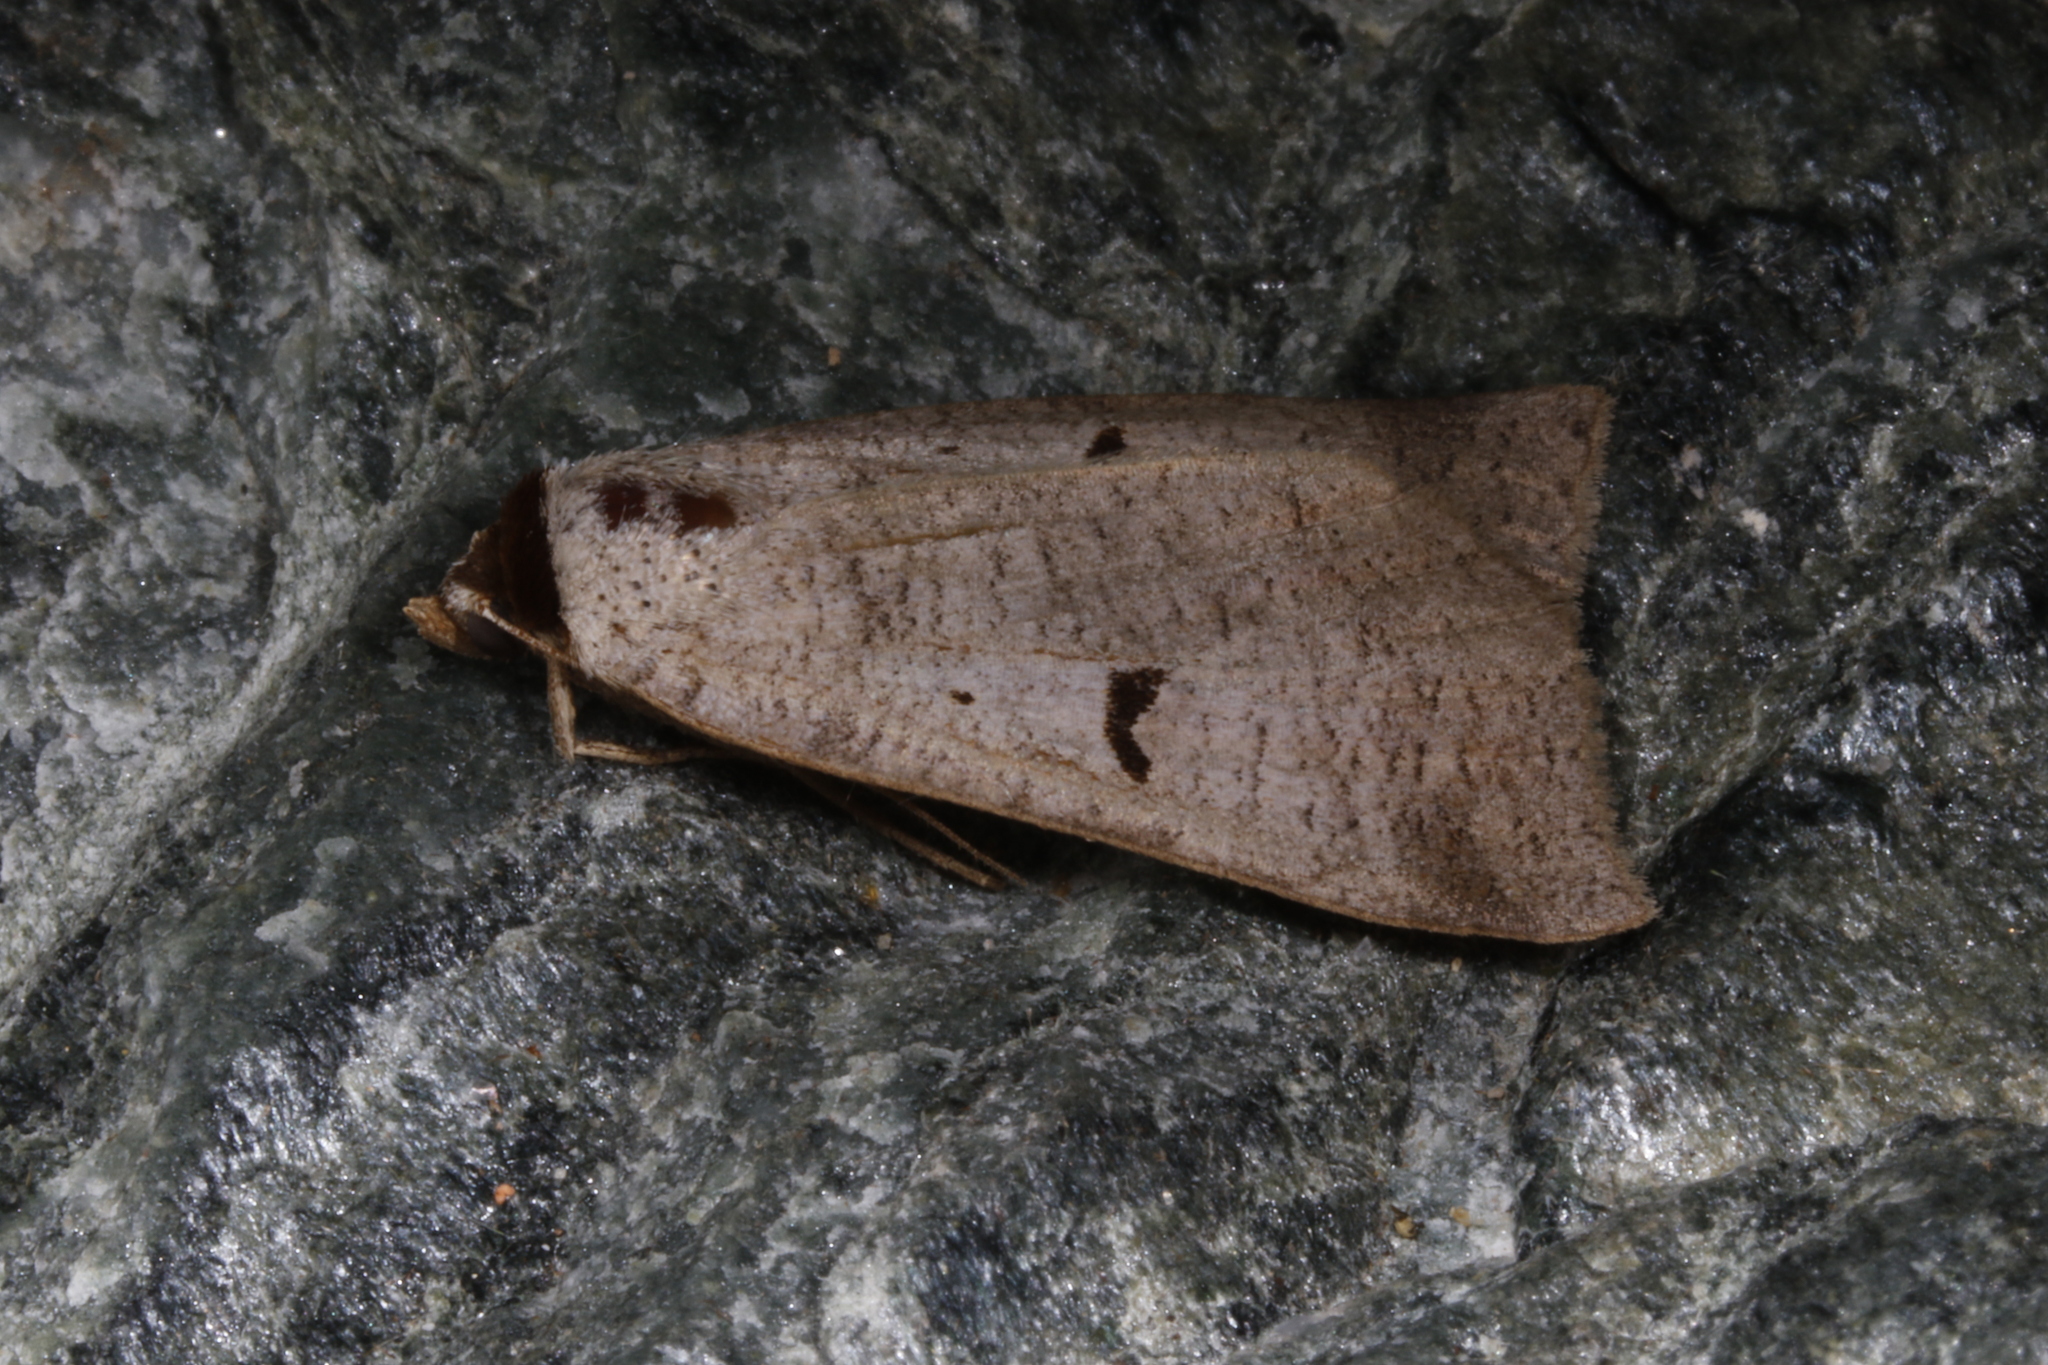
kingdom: Animalia
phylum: Arthropoda
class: Insecta
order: Lepidoptera
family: Erebidae
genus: Lygephila
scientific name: Lygephila pastinum
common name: Blackneck
